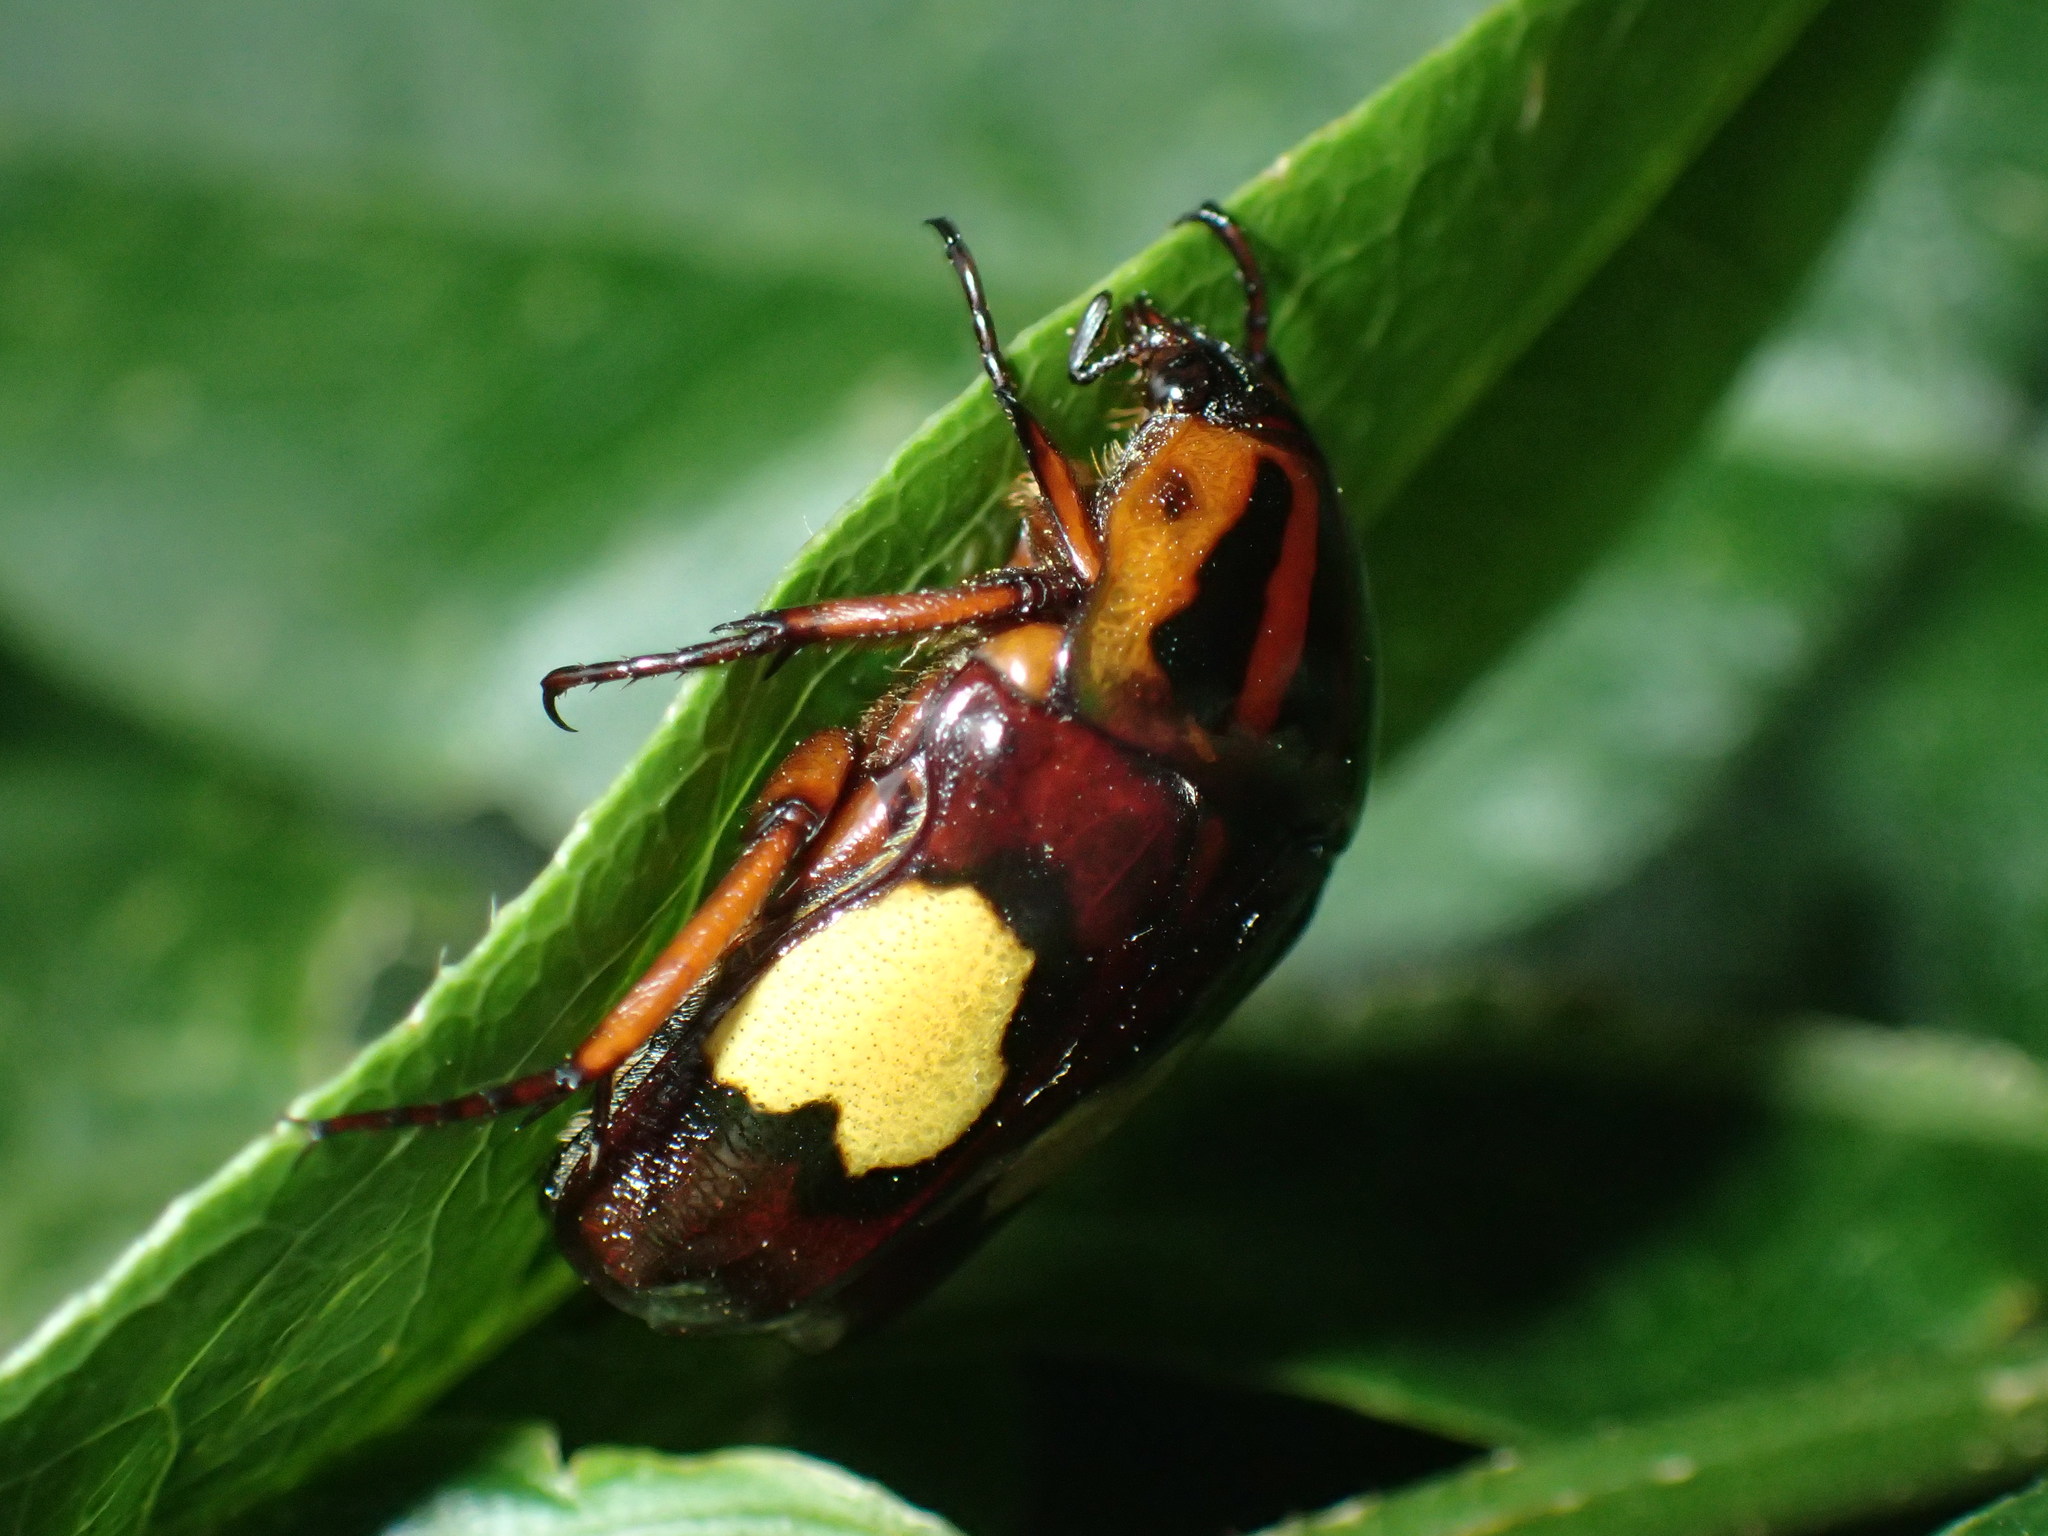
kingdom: Animalia
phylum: Arthropoda
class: Insecta
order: Coleoptera
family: Scarabaeidae
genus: Pedinorrhina
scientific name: Pedinorrhina
